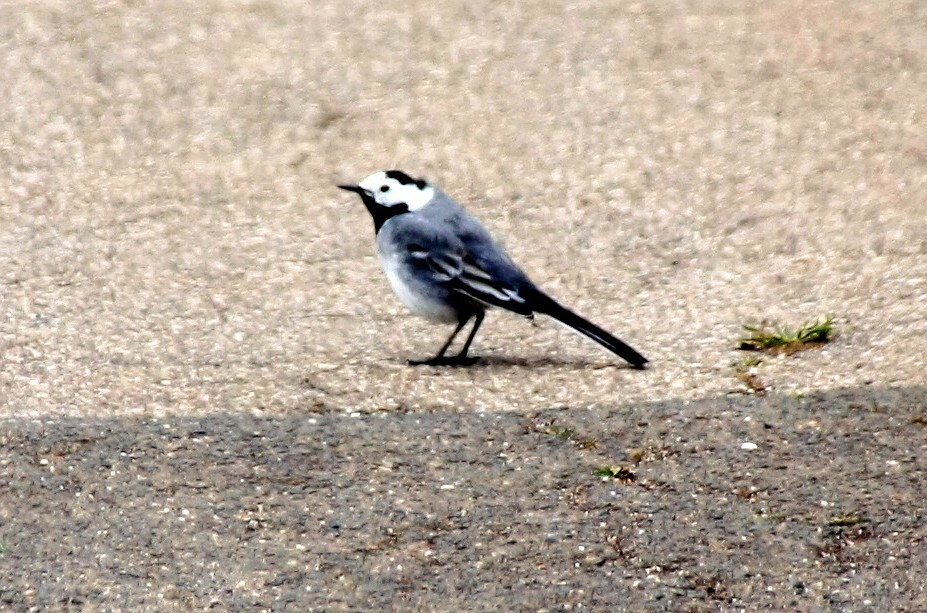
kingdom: Animalia
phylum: Chordata
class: Aves
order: Passeriformes
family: Motacillidae
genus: Motacilla
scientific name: Motacilla alba
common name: White wagtail
